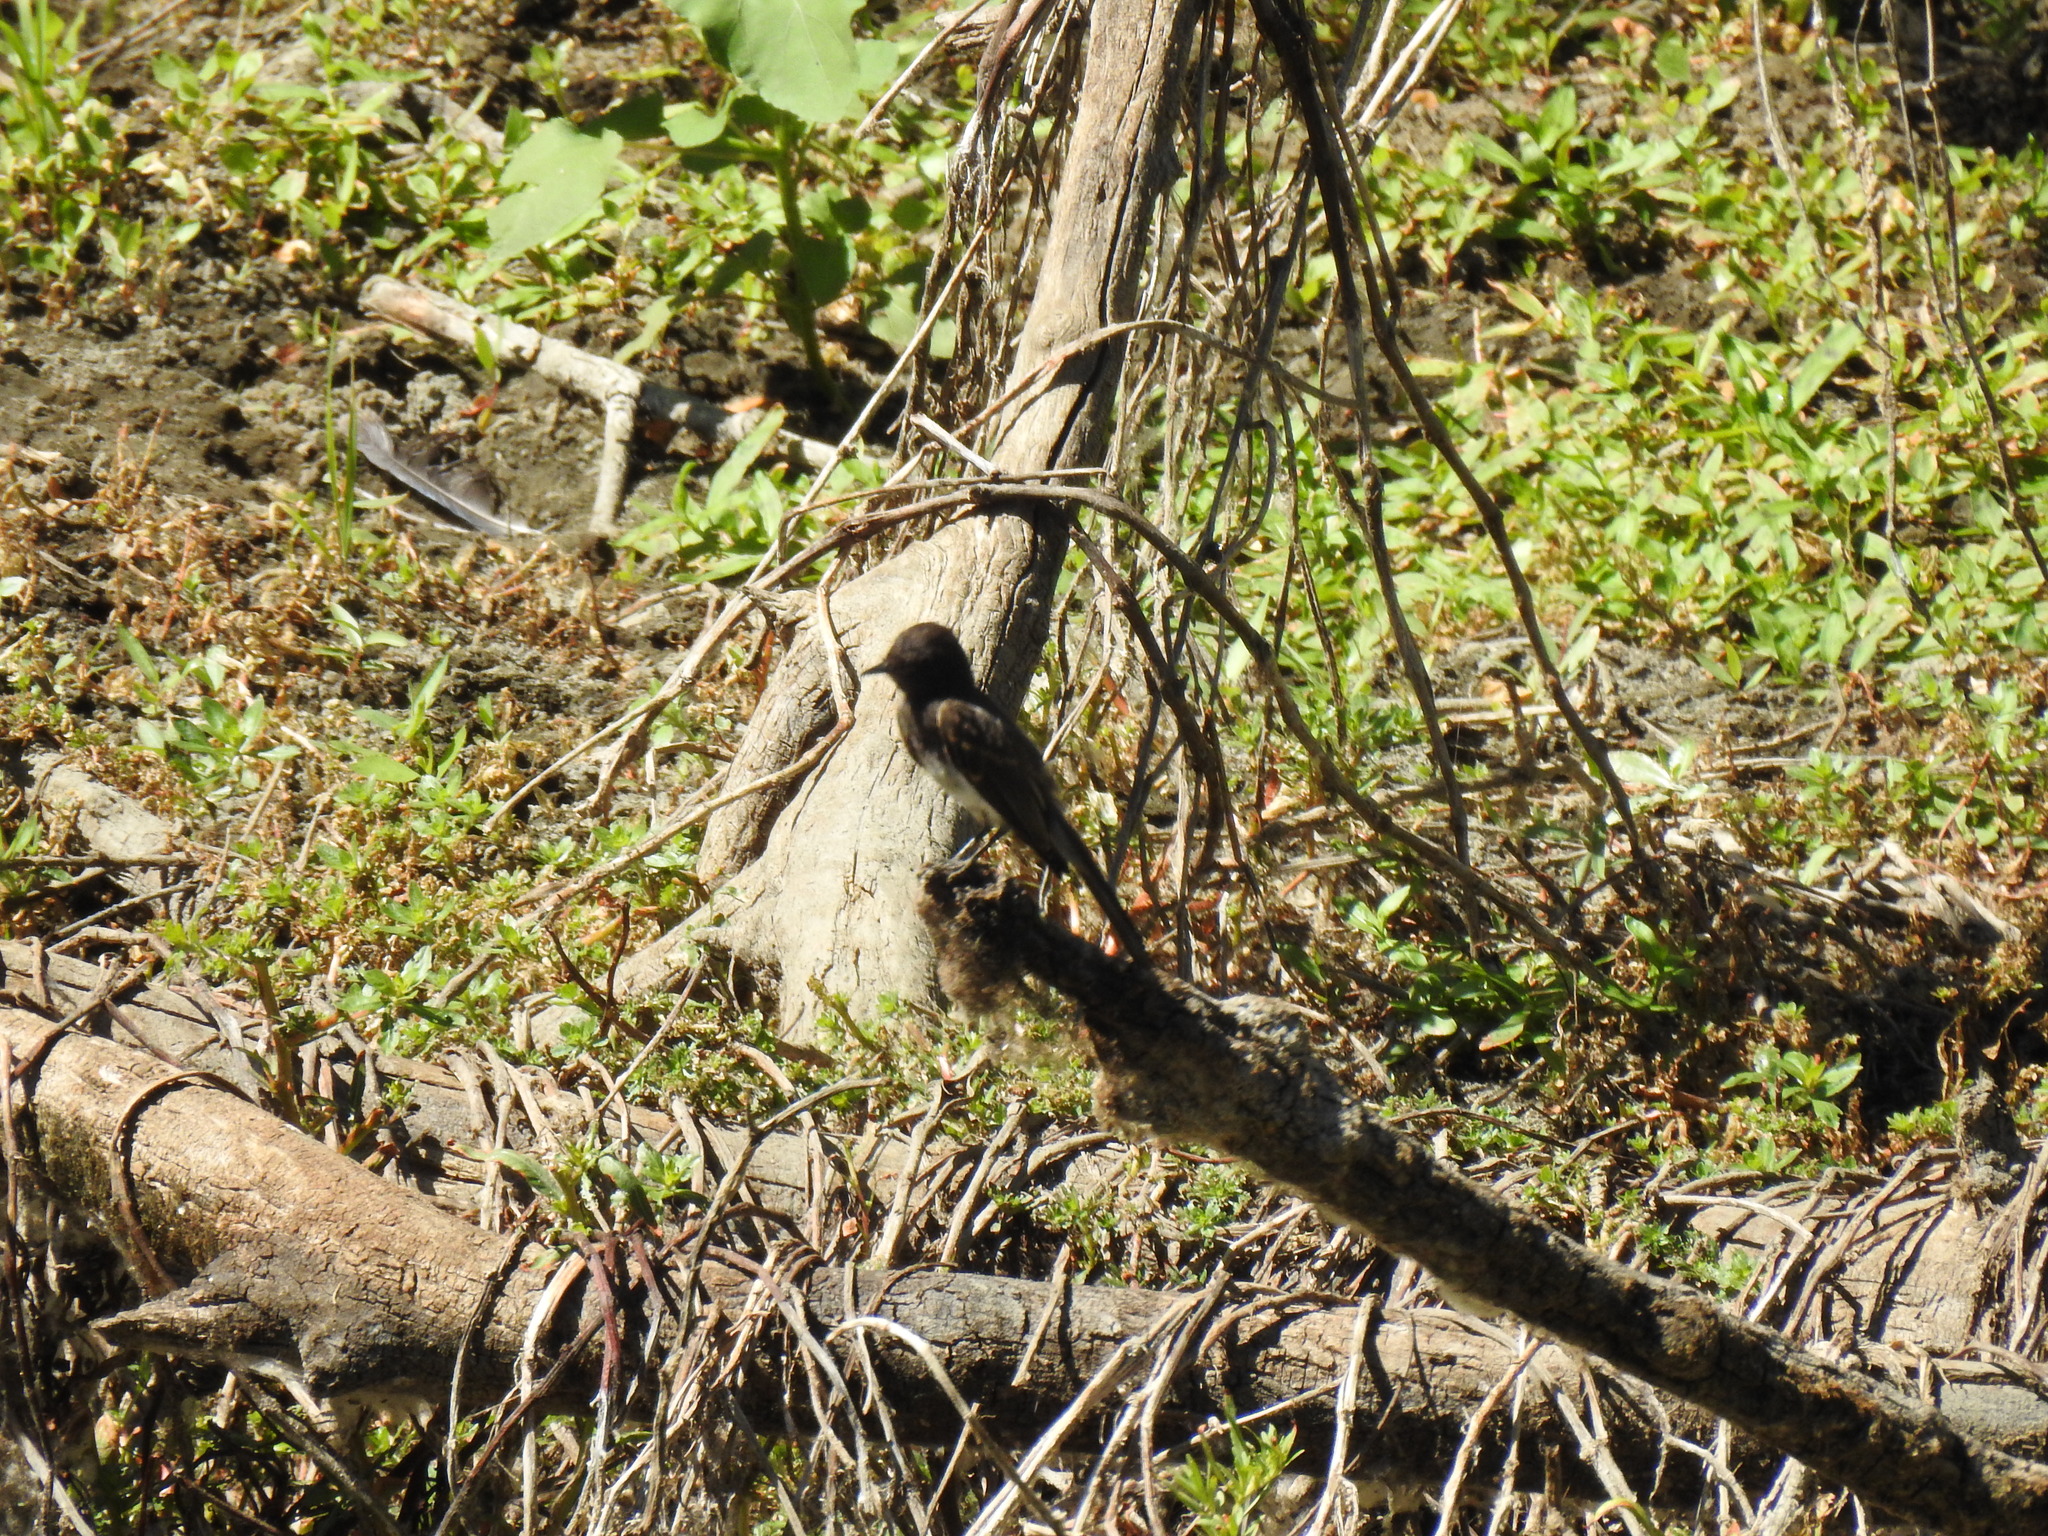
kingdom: Animalia
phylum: Chordata
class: Aves
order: Passeriformes
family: Tyrannidae
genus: Sayornis
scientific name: Sayornis nigricans
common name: Black phoebe
